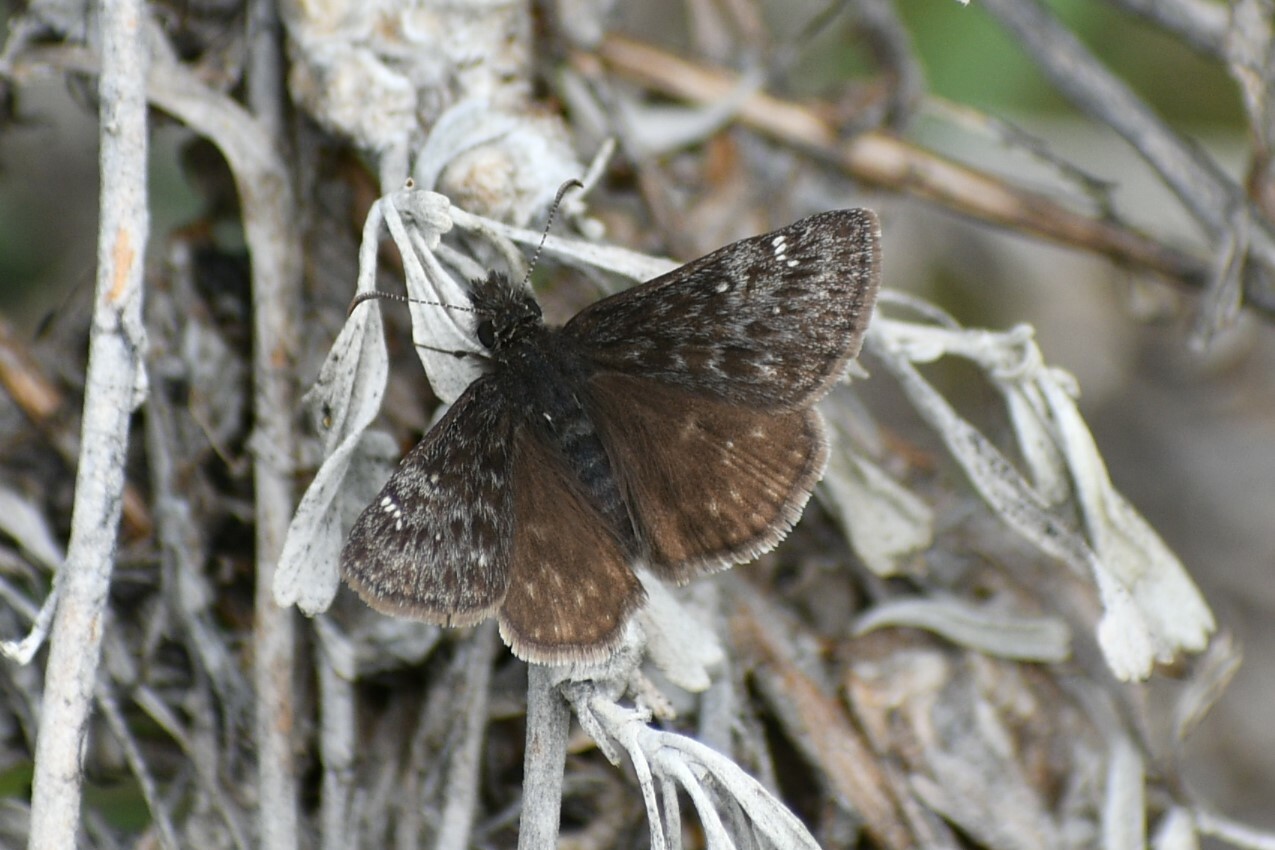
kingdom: Animalia
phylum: Arthropoda
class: Insecta
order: Lepidoptera
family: Hesperiidae
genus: Erynnis
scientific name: Erynnis persius
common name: Persius duskywing
